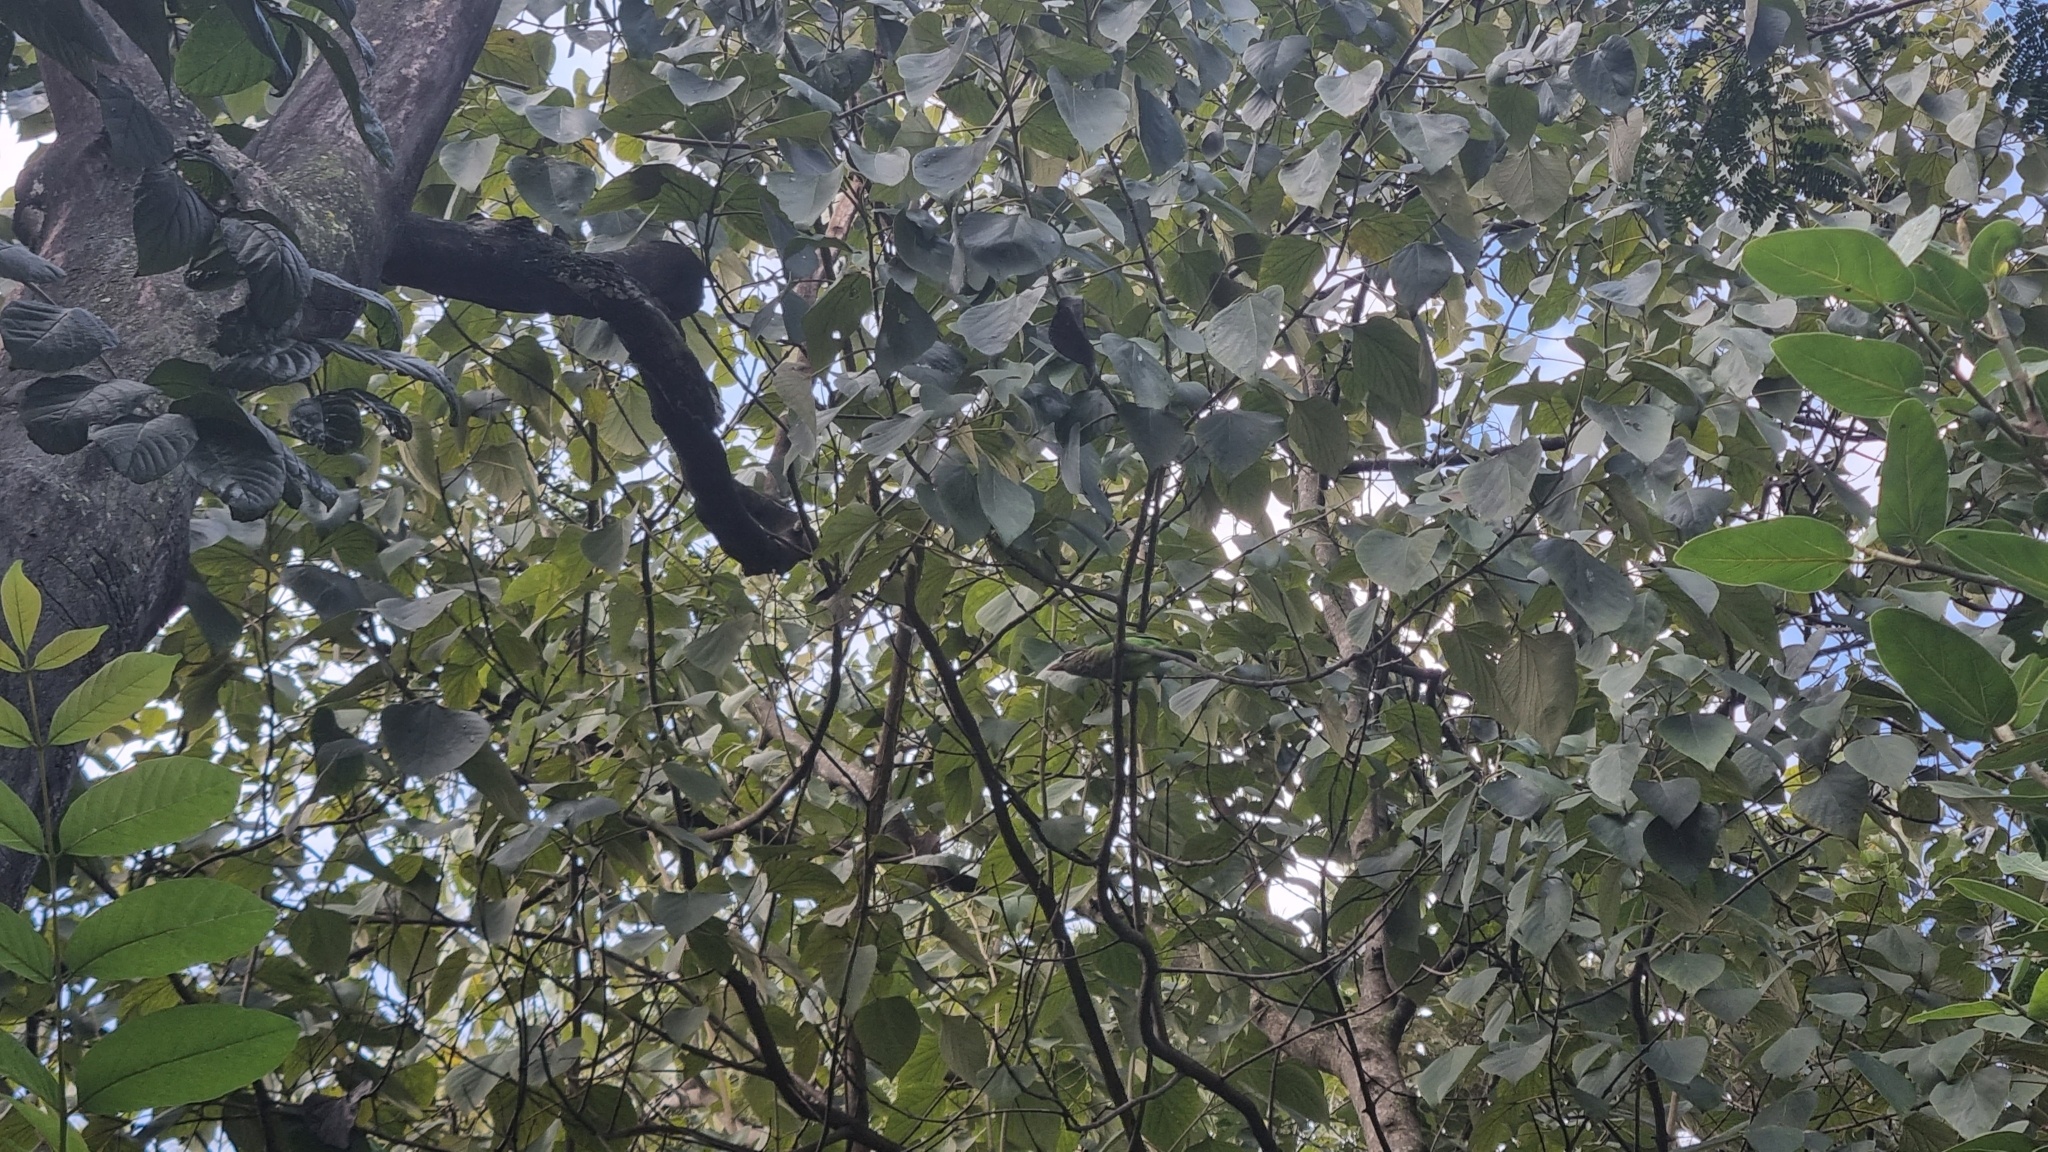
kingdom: Animalia
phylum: Chordata
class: Aves
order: Piciformes
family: Megalaimidae
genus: Psilopogon
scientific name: Psilopogon viridis
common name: White-cheeked barbet
